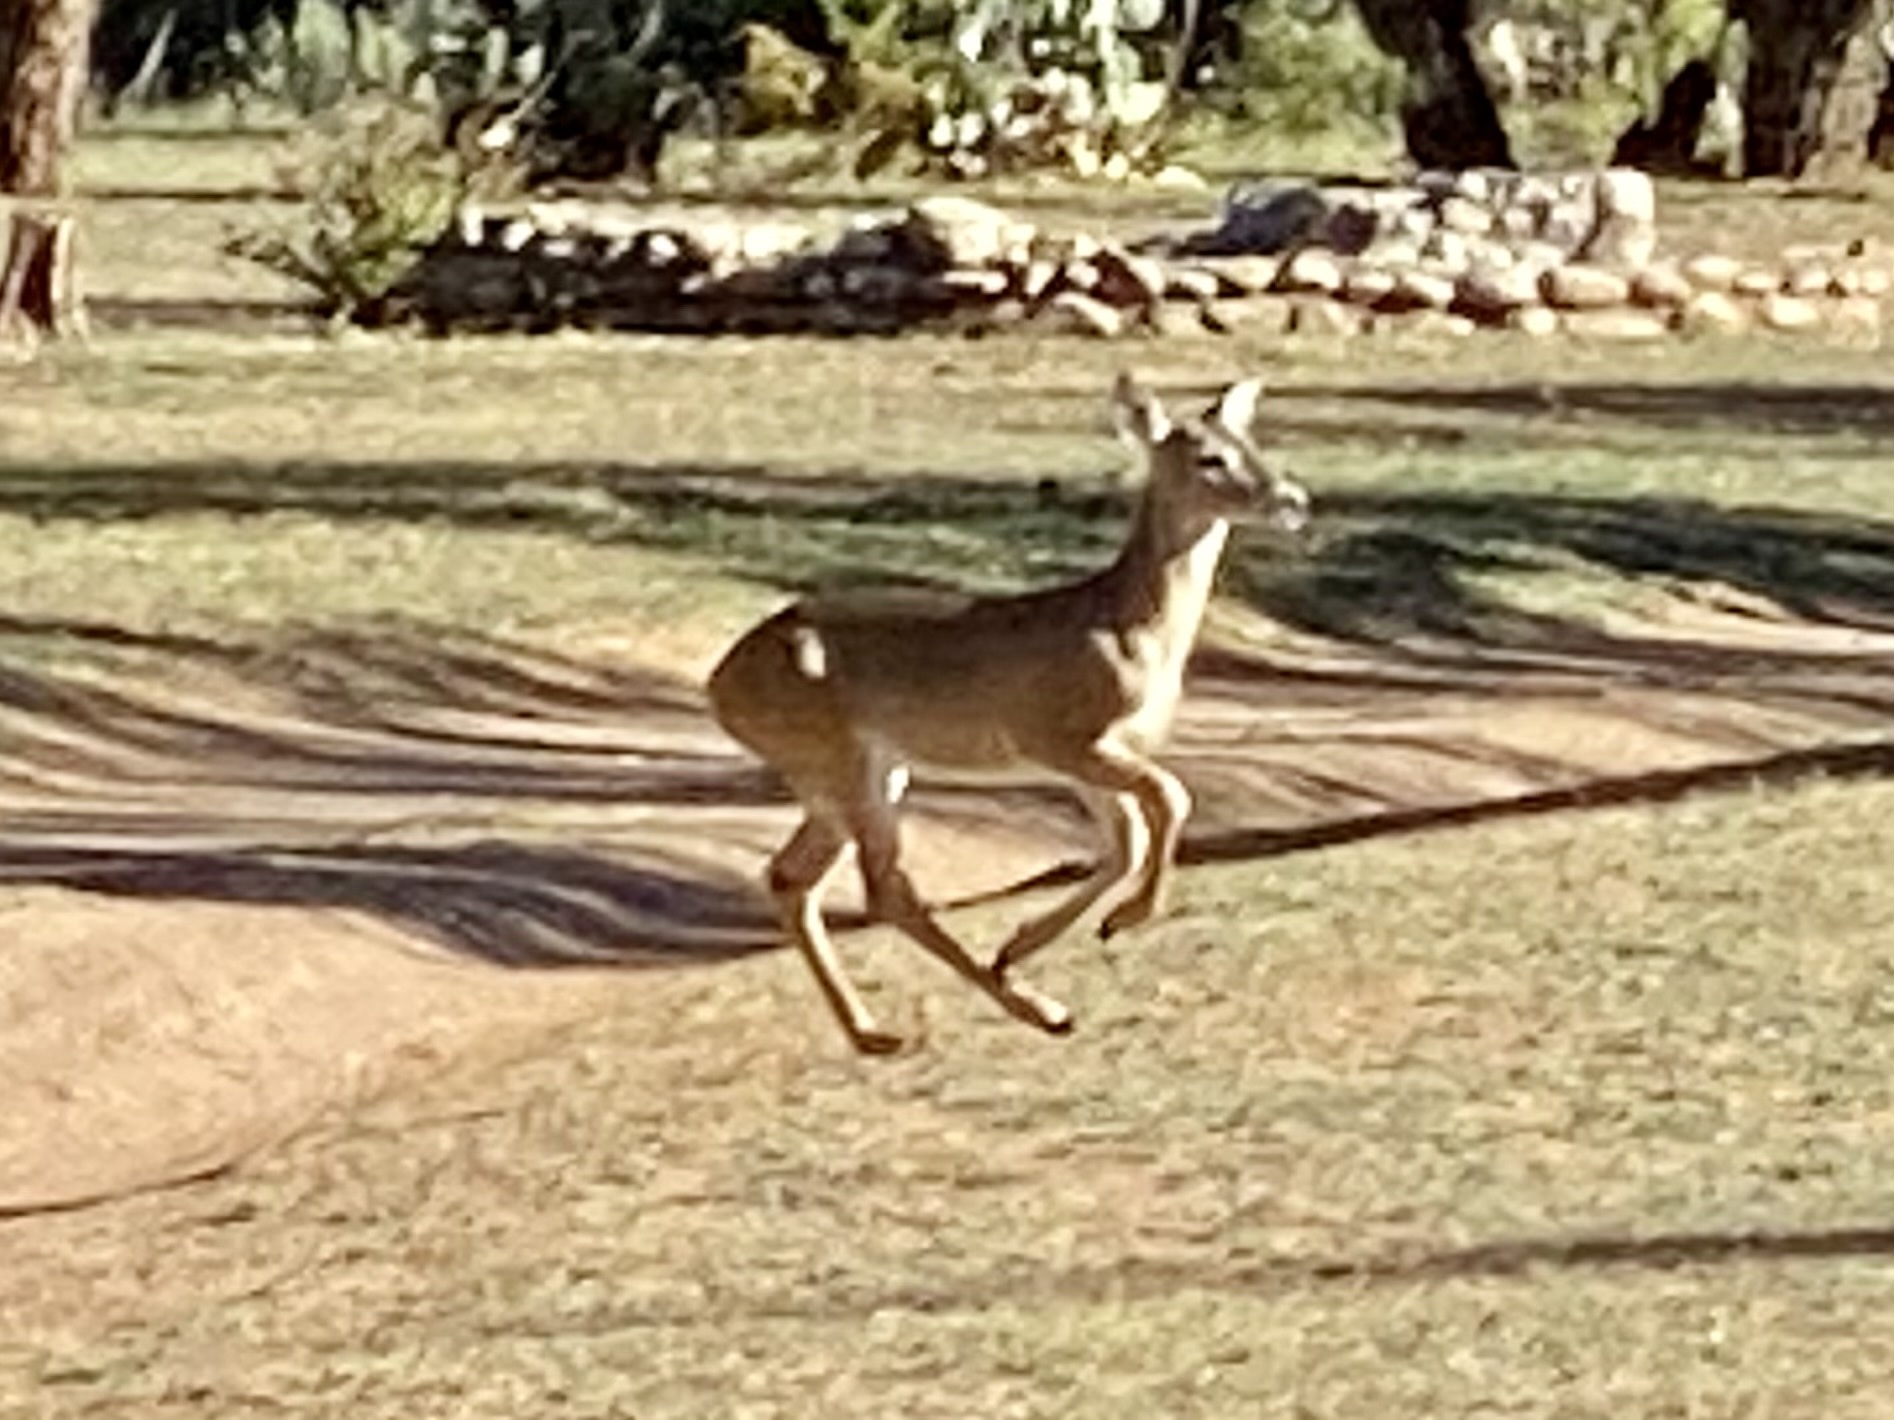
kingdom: Animalia
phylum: Chordata
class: Mammalia
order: Artiodactyla
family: Cervidae
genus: Odocoileus
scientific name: Odocoileus virginianus
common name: White-tailed deer
